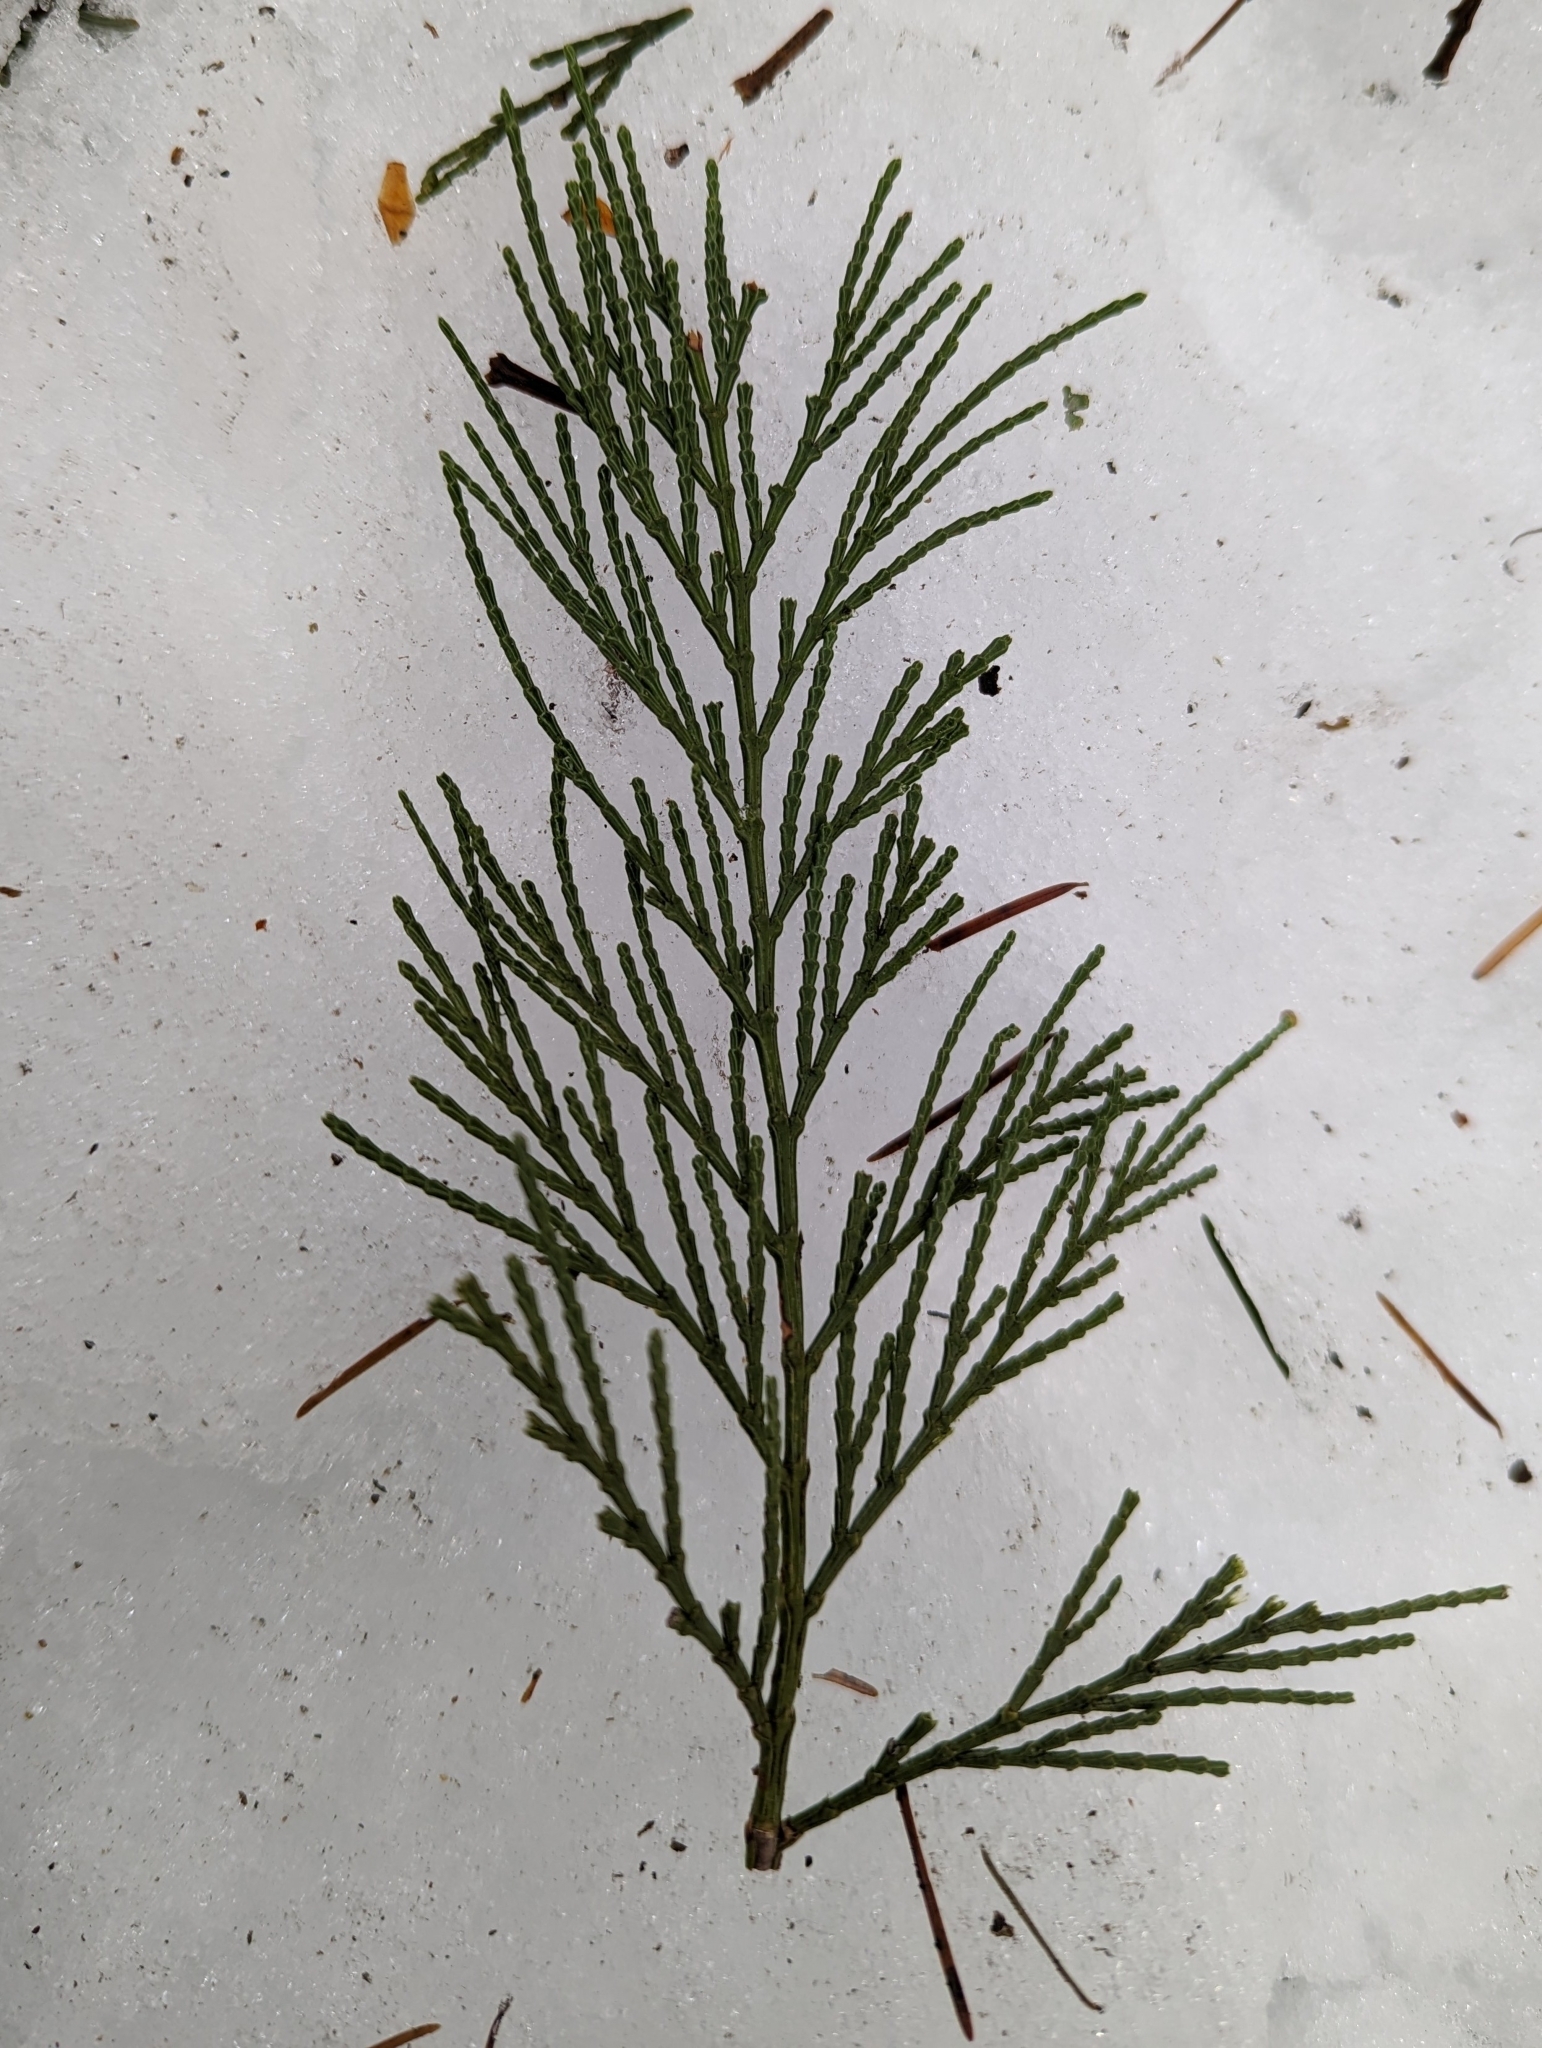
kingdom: Plantae
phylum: Tracheophyta
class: Pinopsida
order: Pinales
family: Cupressaceae
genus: Calocedrus
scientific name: Calocedrus decurrens
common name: Californian incense-cedar
